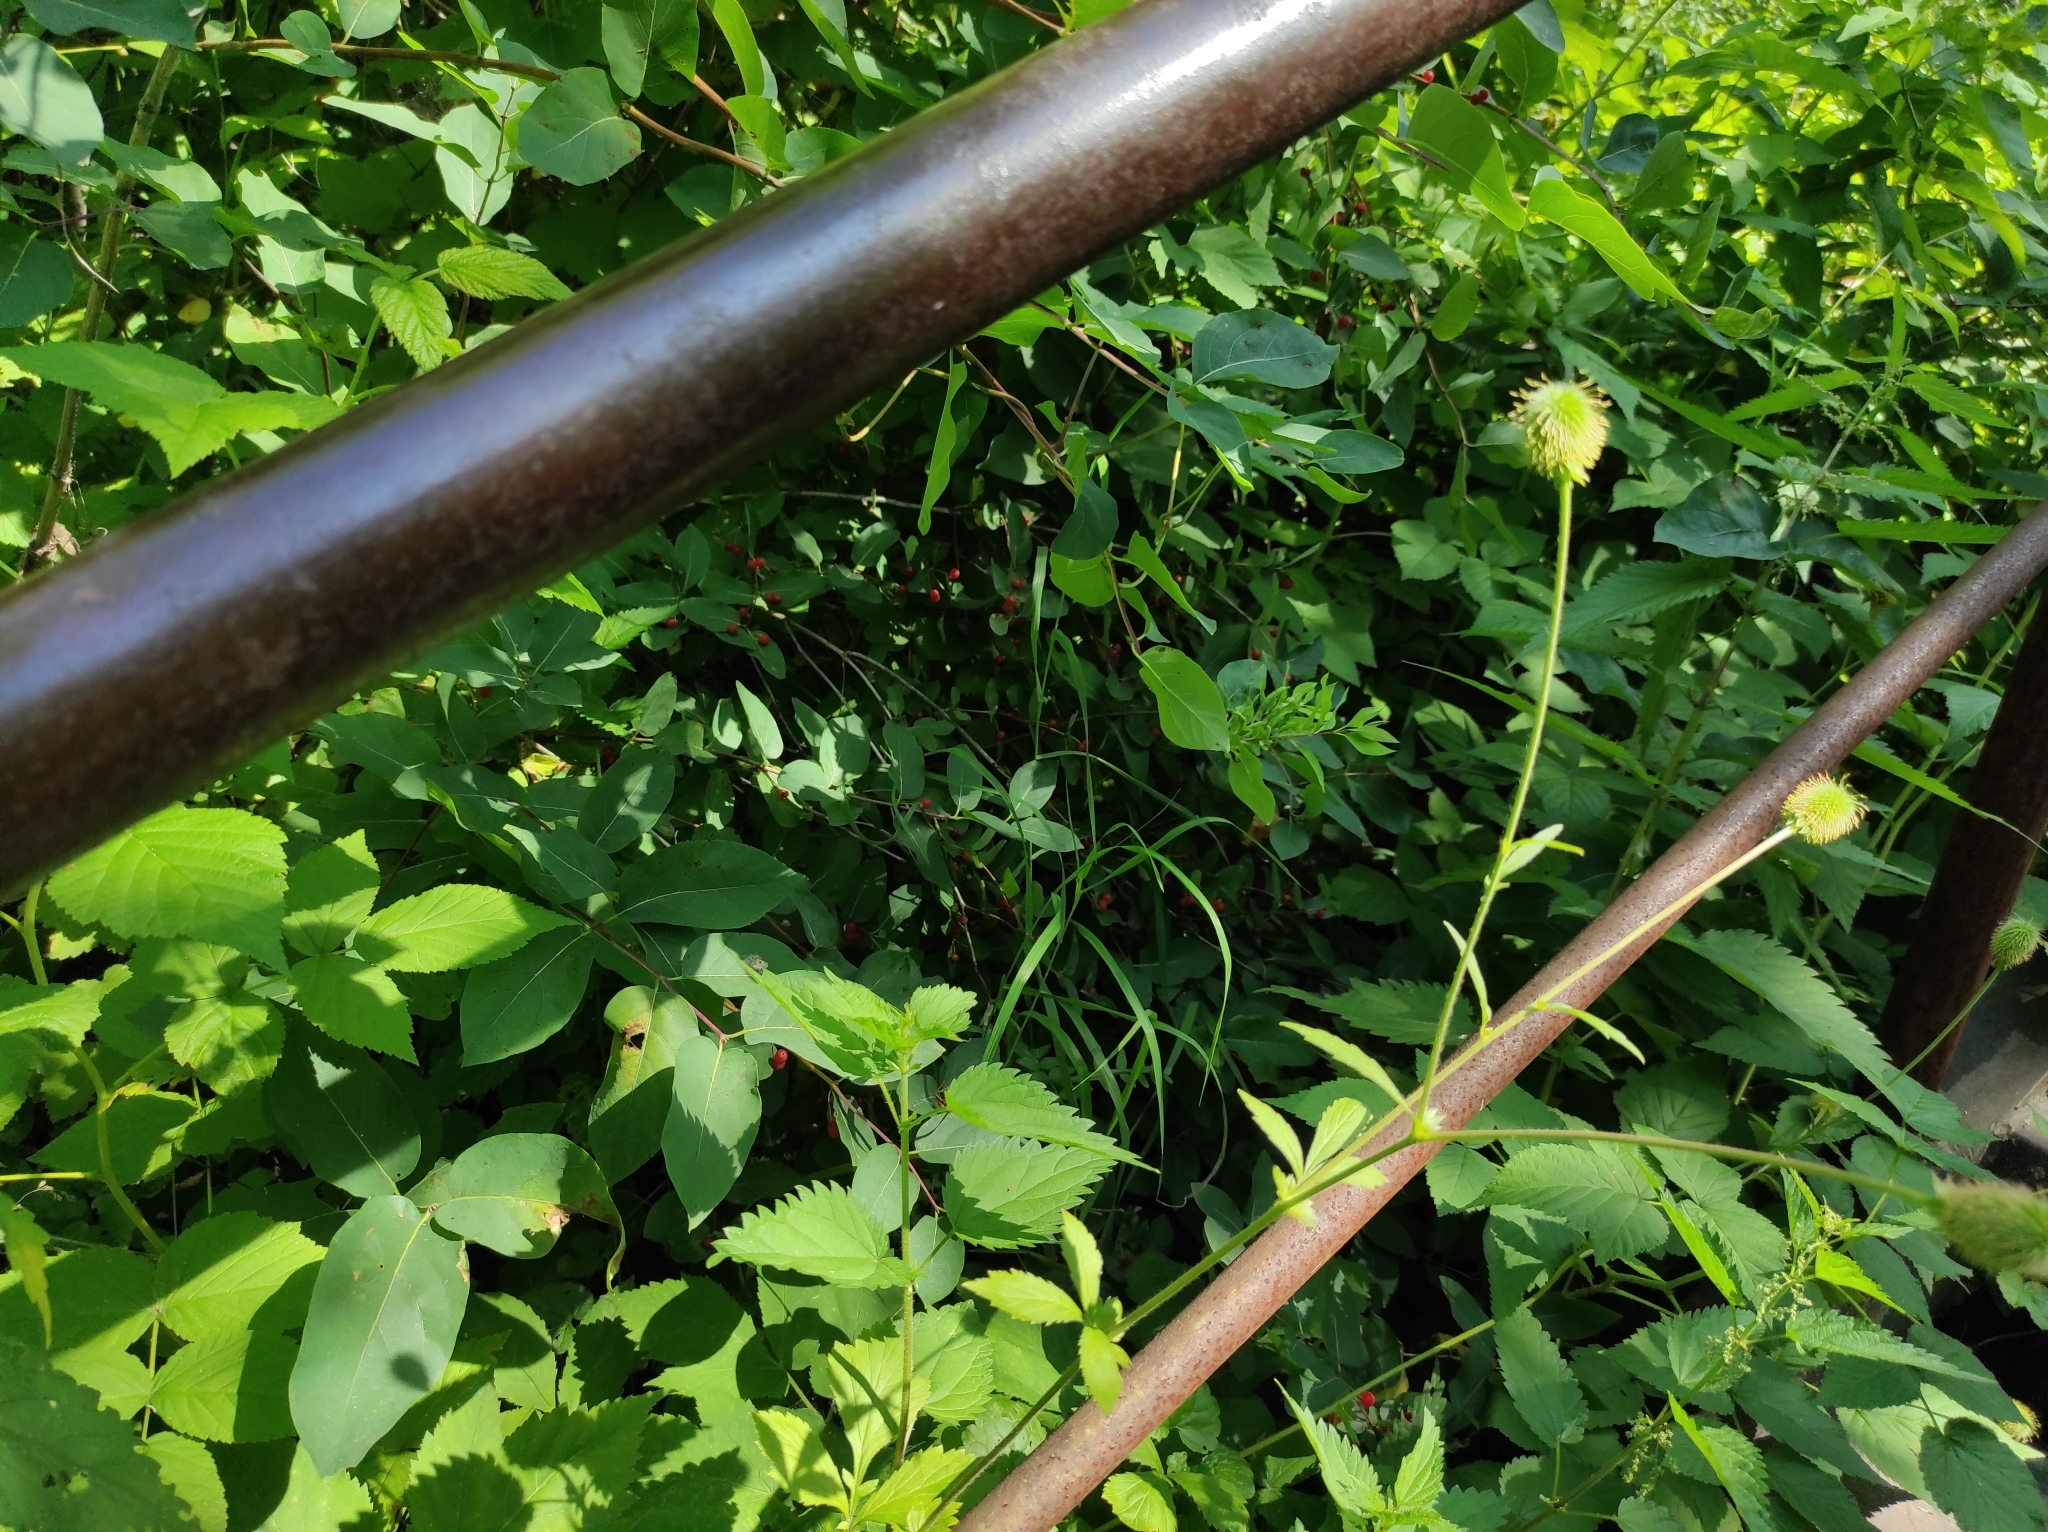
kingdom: Plantae
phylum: Tracheophyta
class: Magnoliopsida
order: Dipsacales
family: Caprifoliaceae
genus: Lonicera
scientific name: Lonicera tatarica
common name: Tatarian honeysuckle
